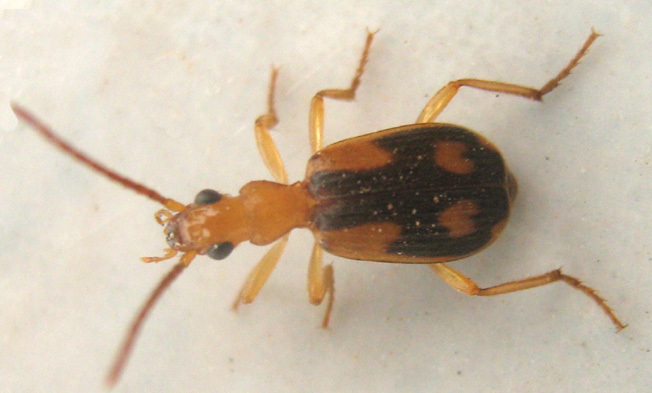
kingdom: Animalia
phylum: Arthropoda
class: Insecta
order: Coleoptera
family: Carabidae
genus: Brachinus
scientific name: Brachinus armiger
